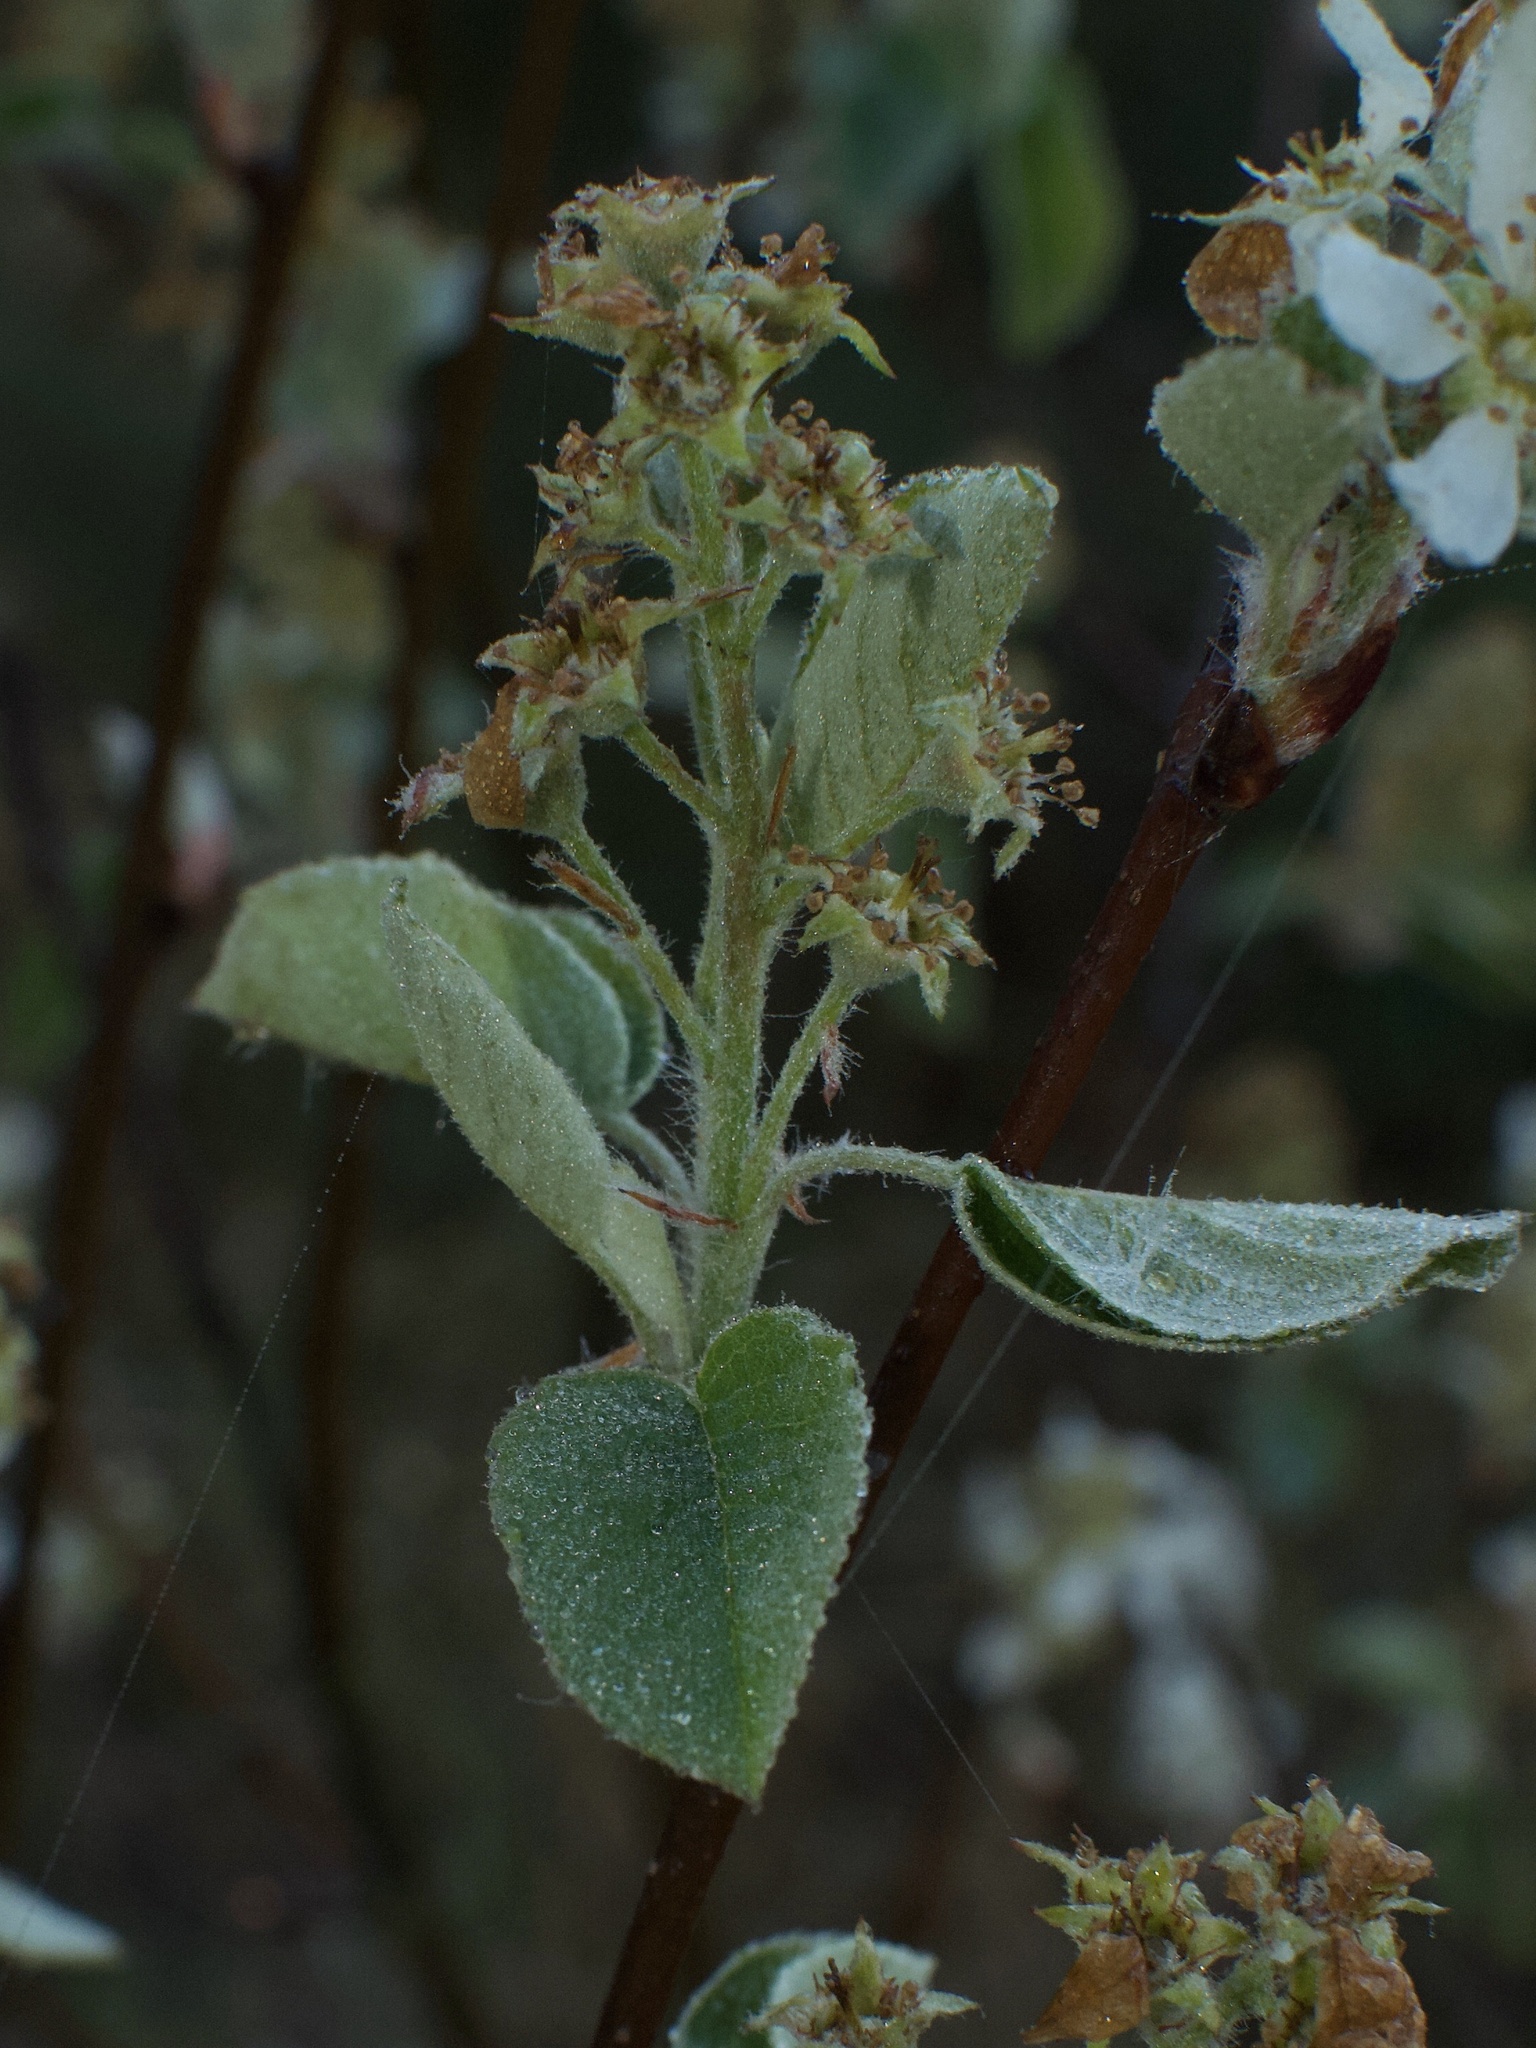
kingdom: Plantae
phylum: Tracheophyta
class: Magnoliopsida
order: Rosales
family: Rosaceae
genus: Amelanchier
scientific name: Amelanchier
